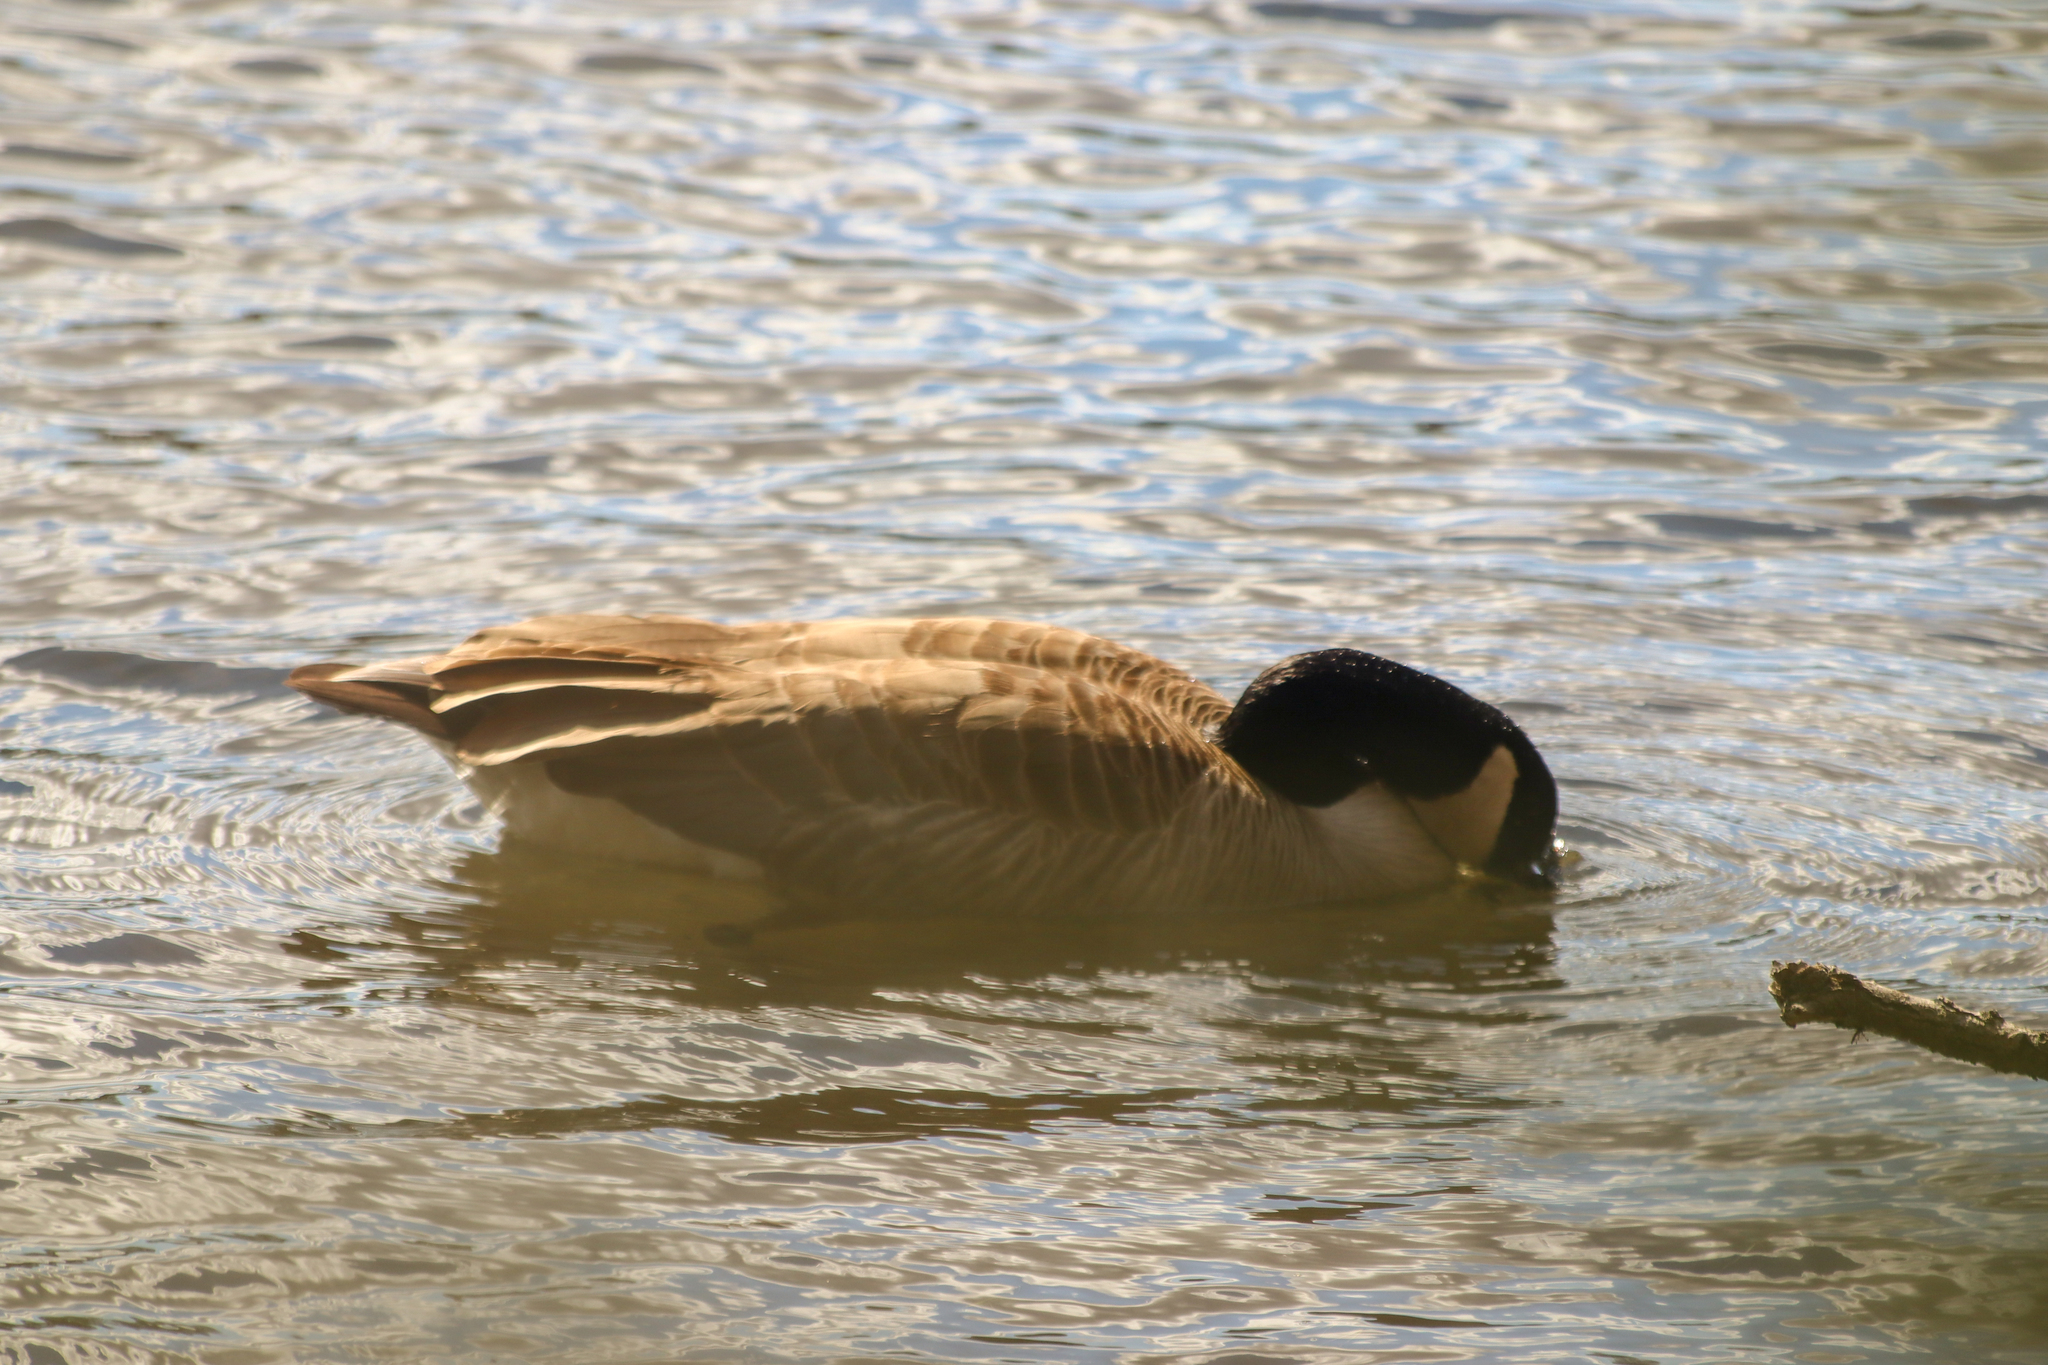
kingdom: Animalia
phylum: Chordata
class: Aves
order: Anseriformes
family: Anatidae
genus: Branta
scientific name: Branta canadensis
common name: Canada goose
